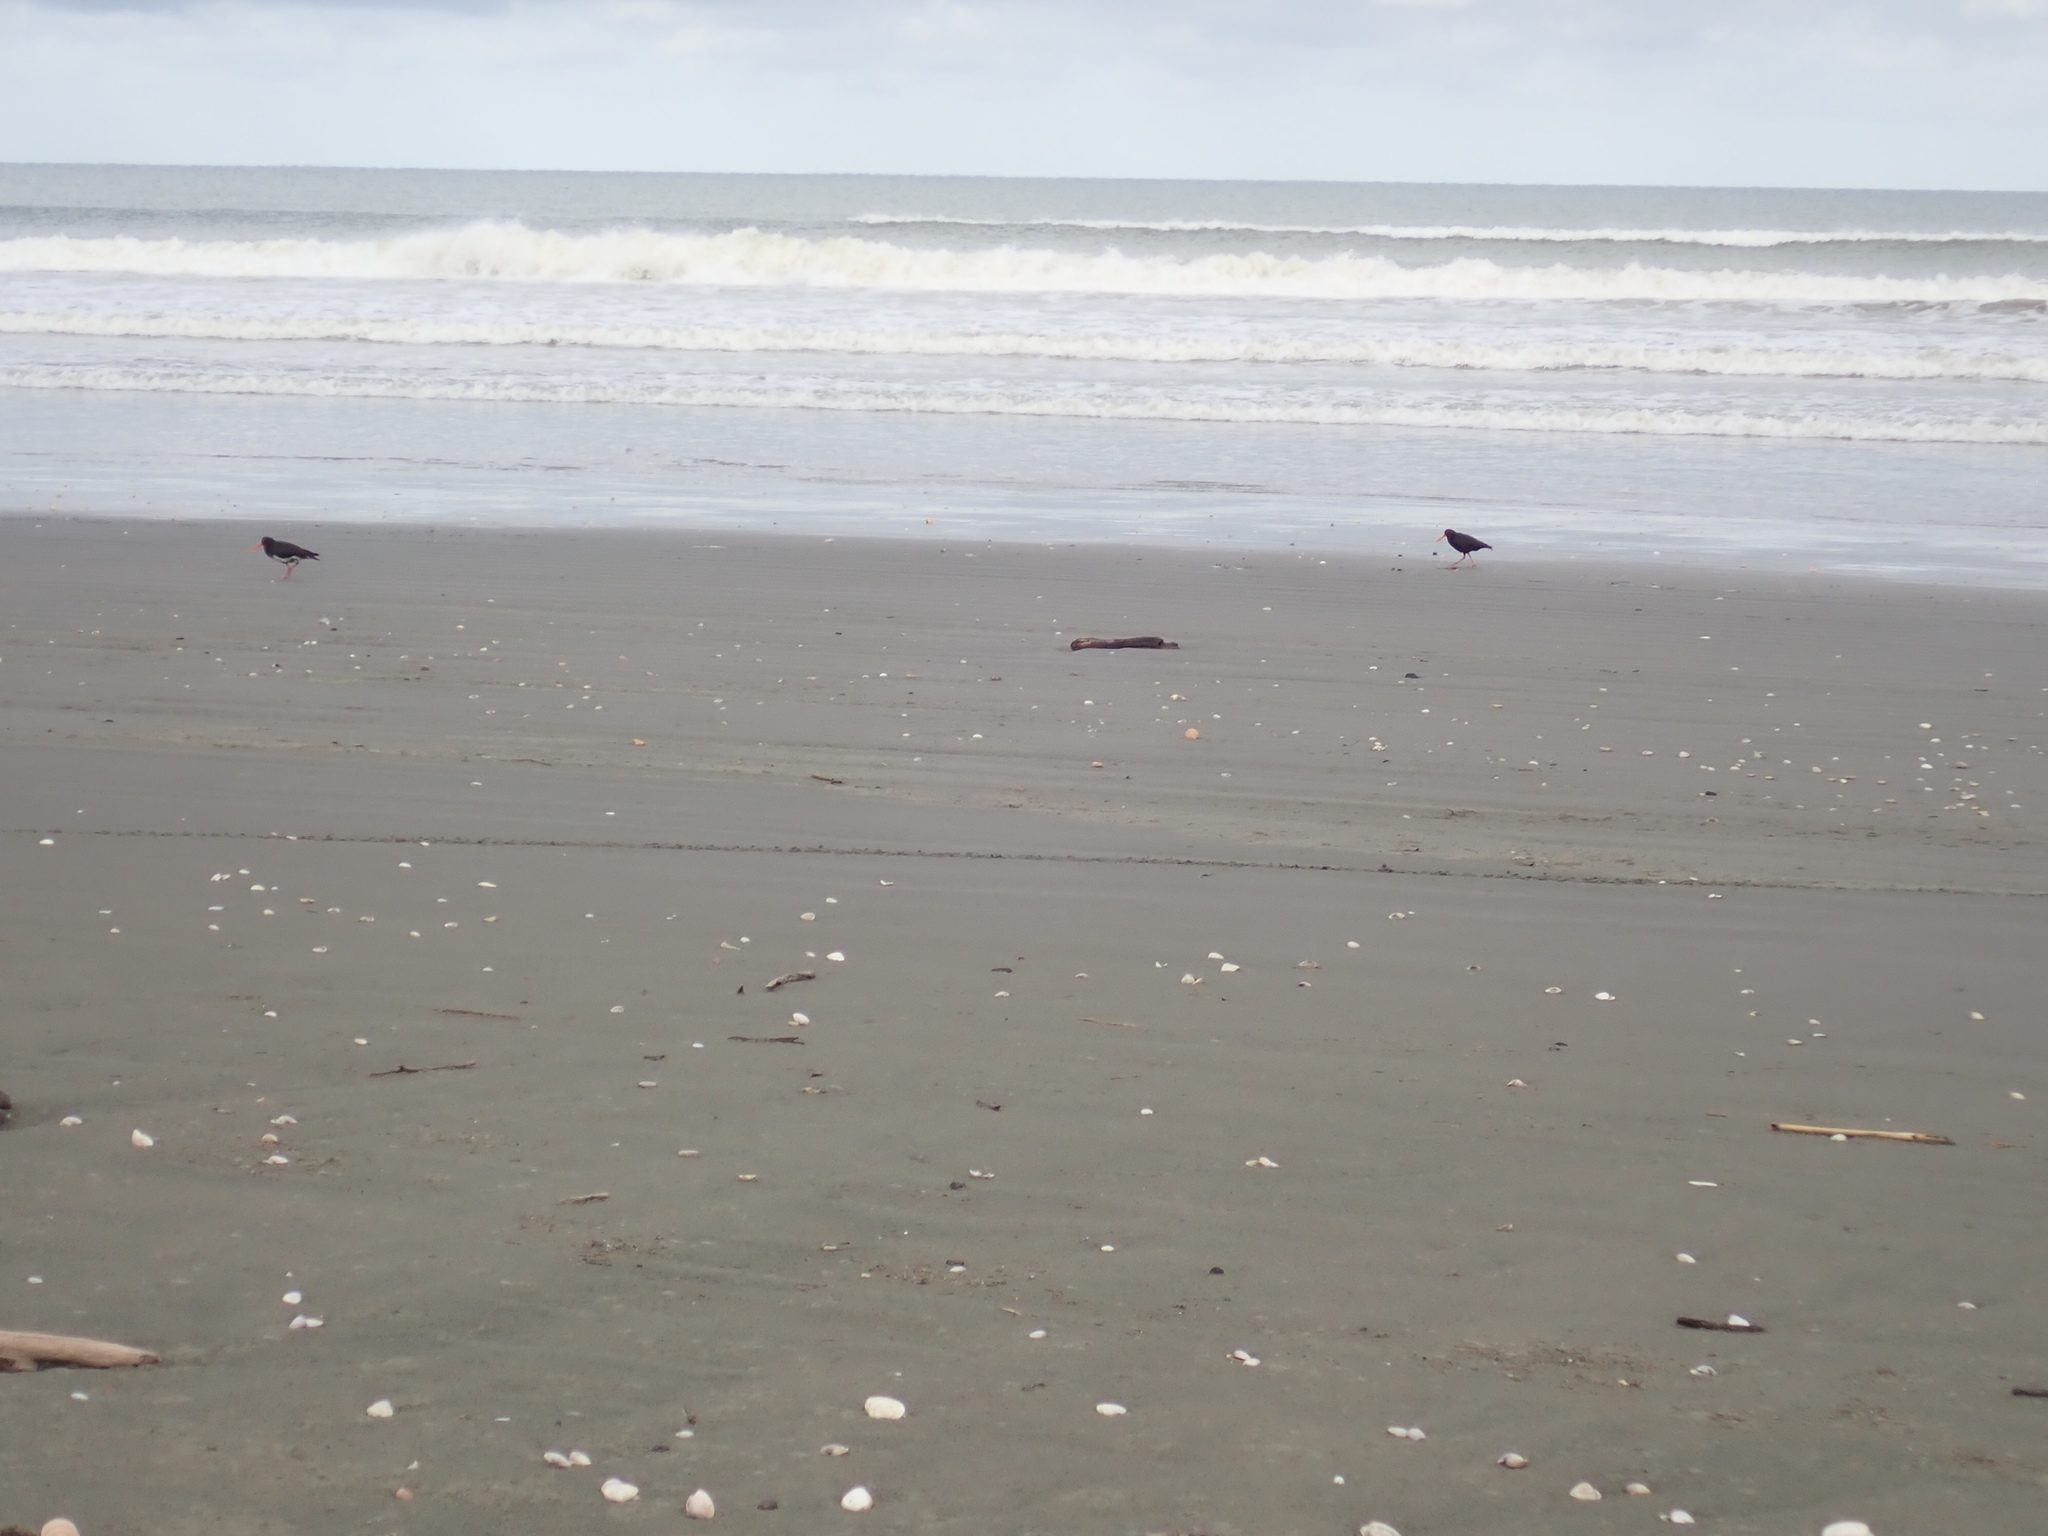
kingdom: Animalia
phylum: Chordata
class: Aves
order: Charadriiformes
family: Haematopodidae
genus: Haematopus
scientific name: Haematopus unicolor
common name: Variable oystercatcher
